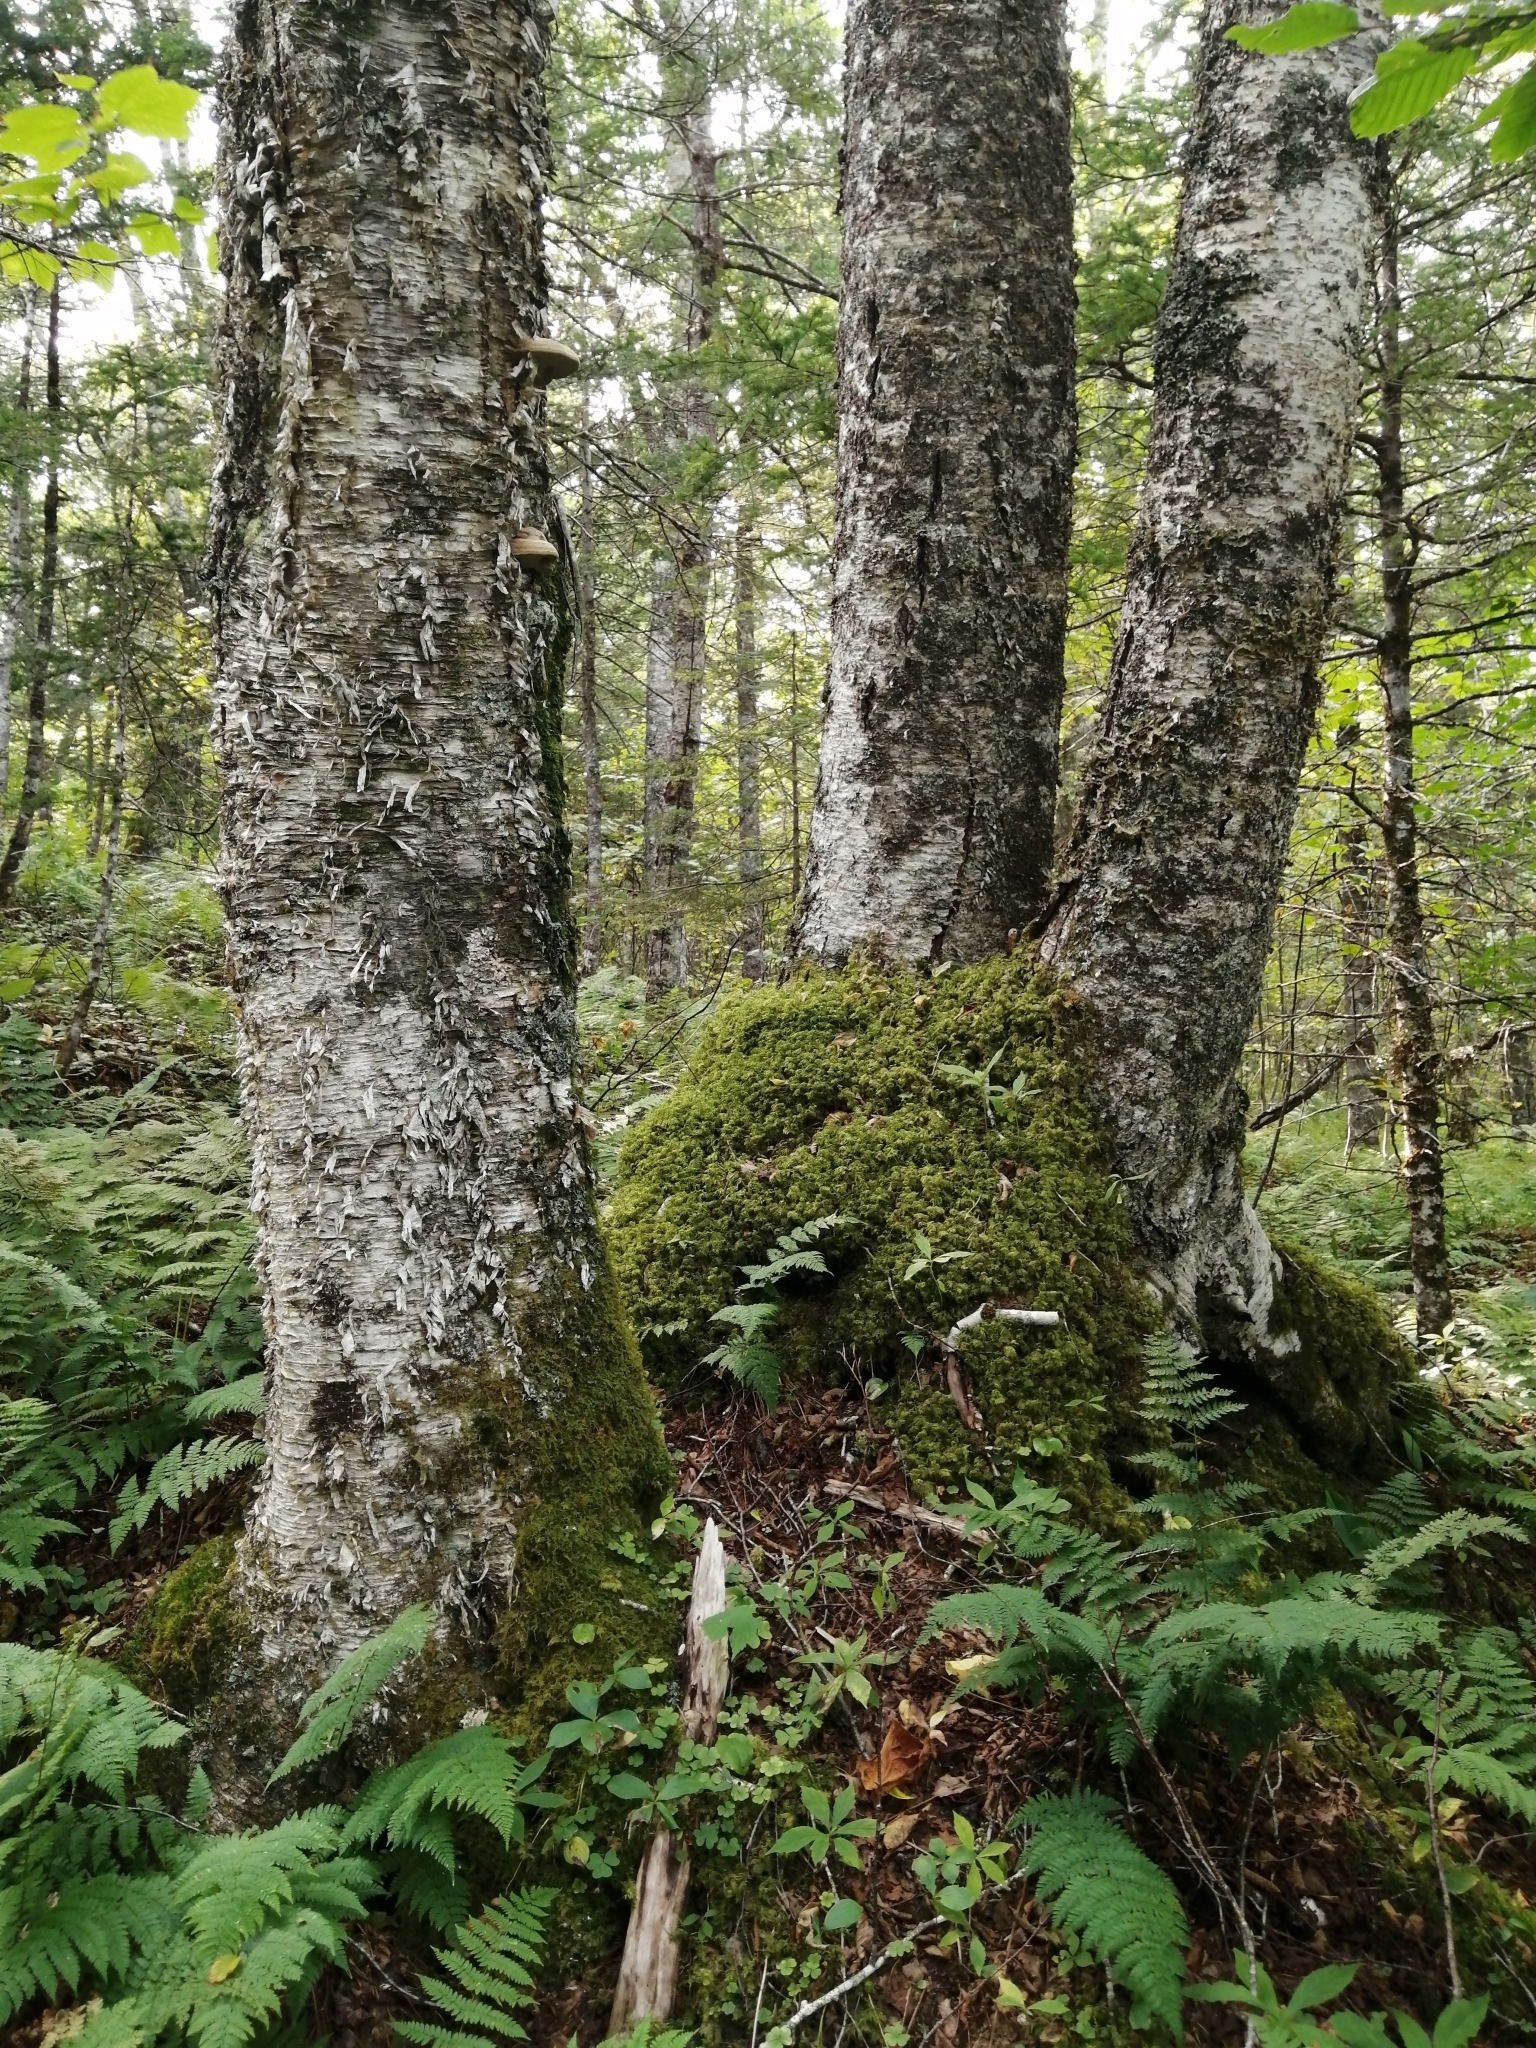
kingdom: Plantae
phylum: Tracheophyta
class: Magnoliopsida
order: Fagales
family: Betulaceae
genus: Betula
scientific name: Betula alleghaniensis
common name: Yellow birch
